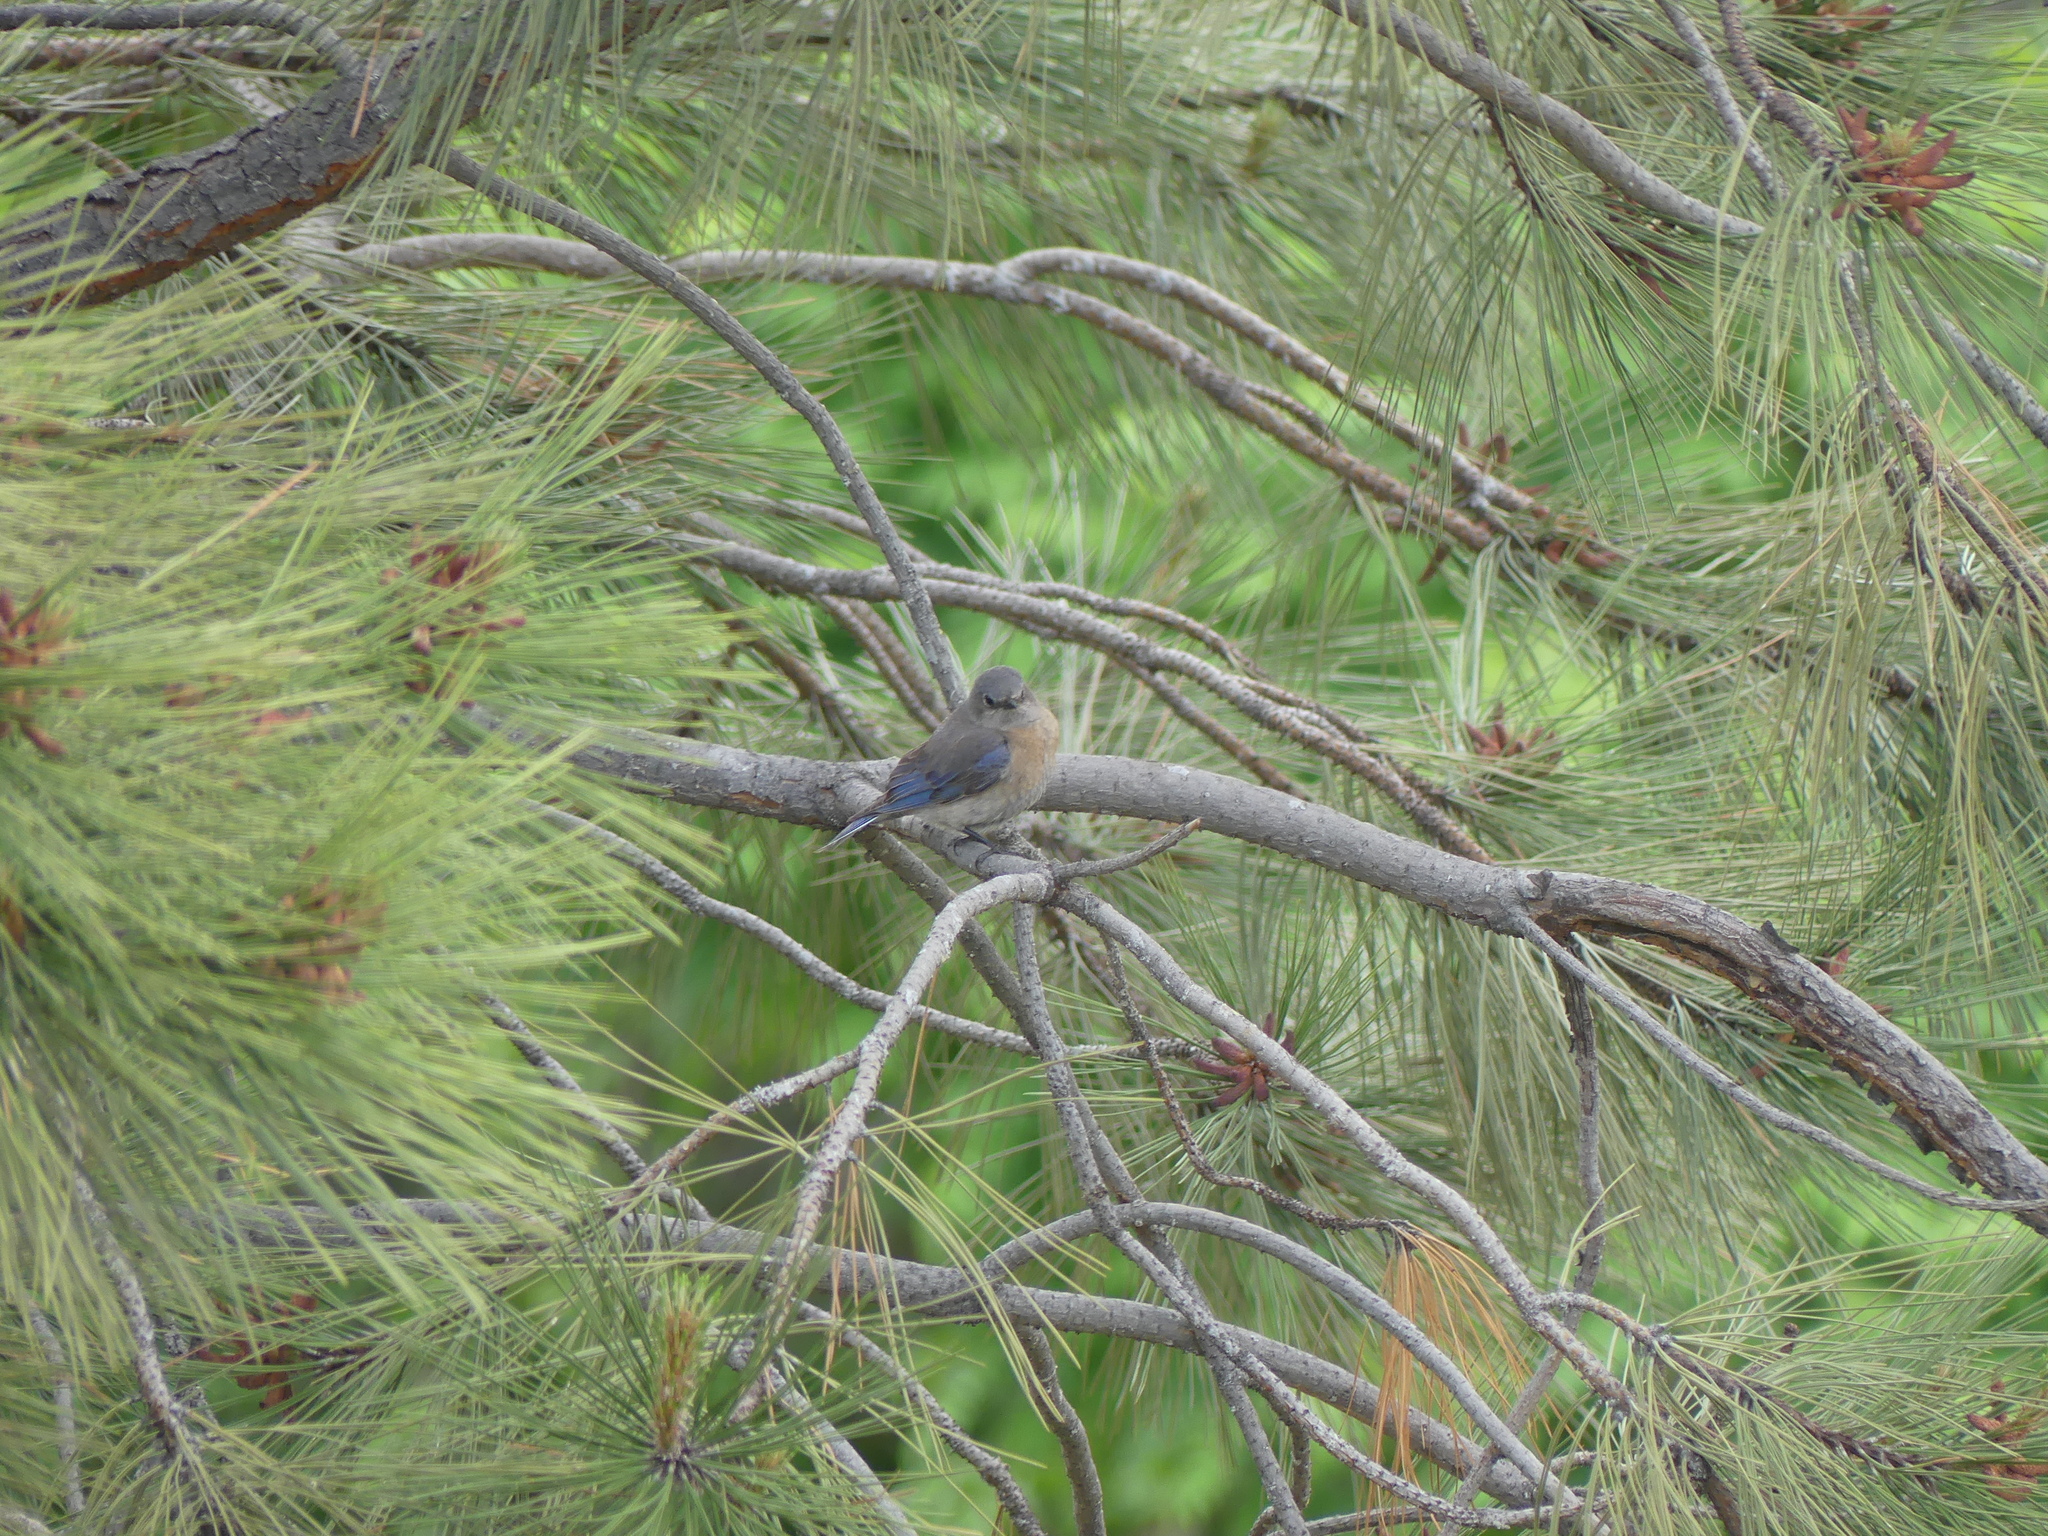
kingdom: Animalia
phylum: Chordata
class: Aves
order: Passeriformes
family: Turdidae
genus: Sialia
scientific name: Sialia mexicana
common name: Western bluebird
